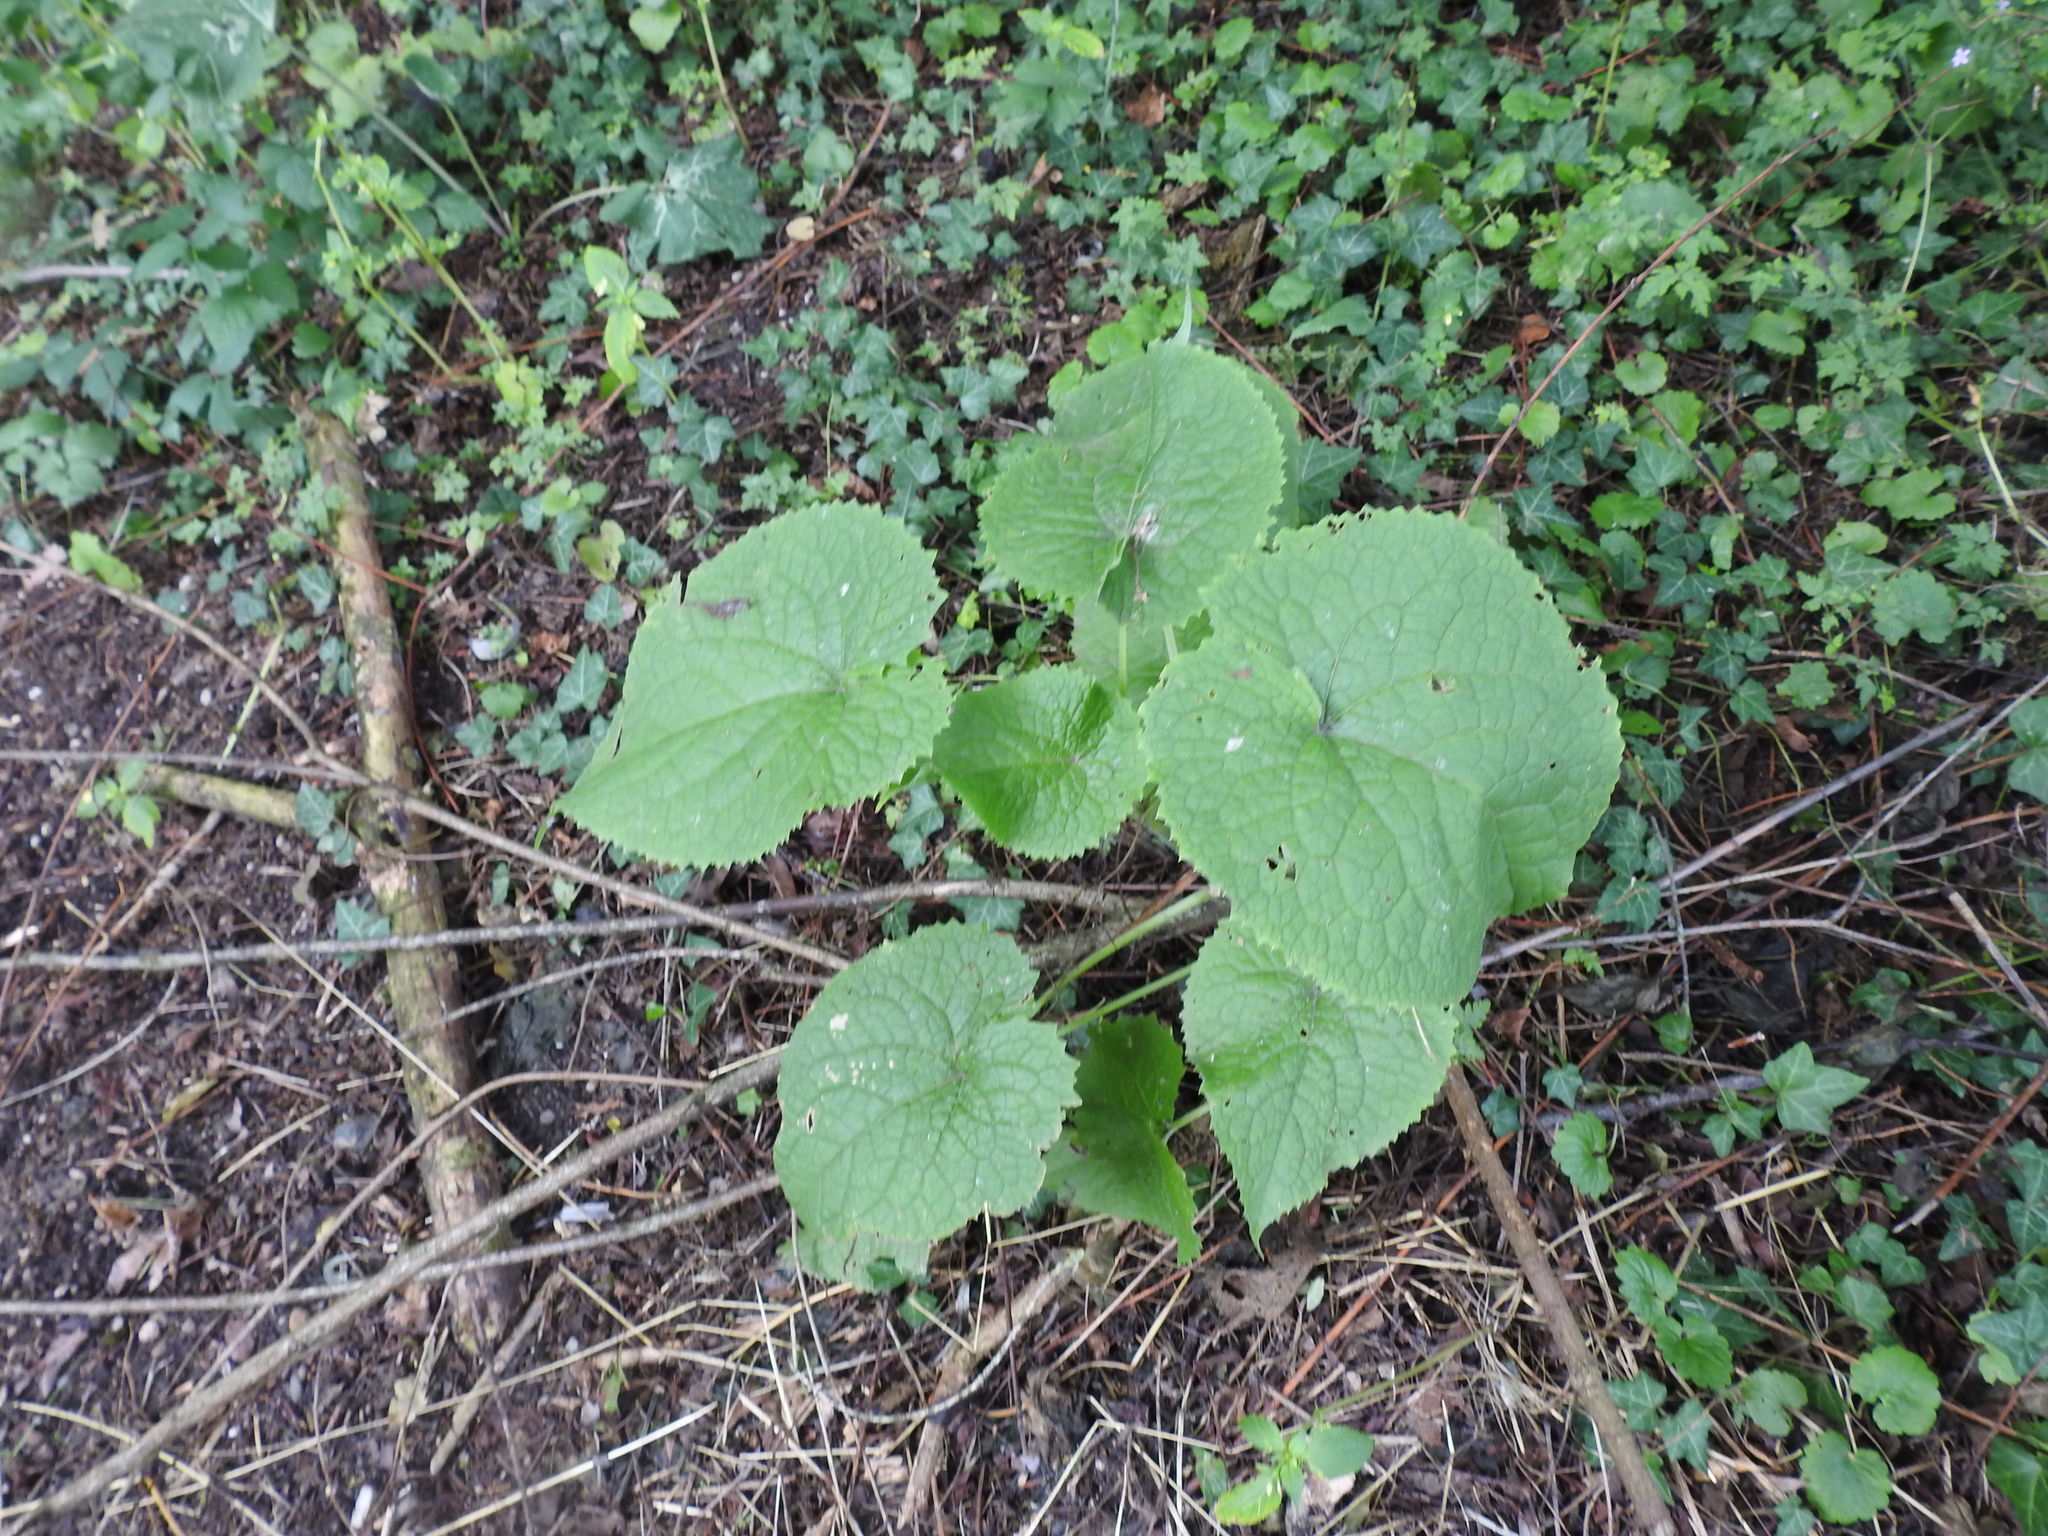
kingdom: Plantae
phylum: Tracheophyta
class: Magnoliopsida
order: Brassicales
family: Brassicaceae
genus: Lunaria
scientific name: Lunaria rediviva
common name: Perennial honesty
